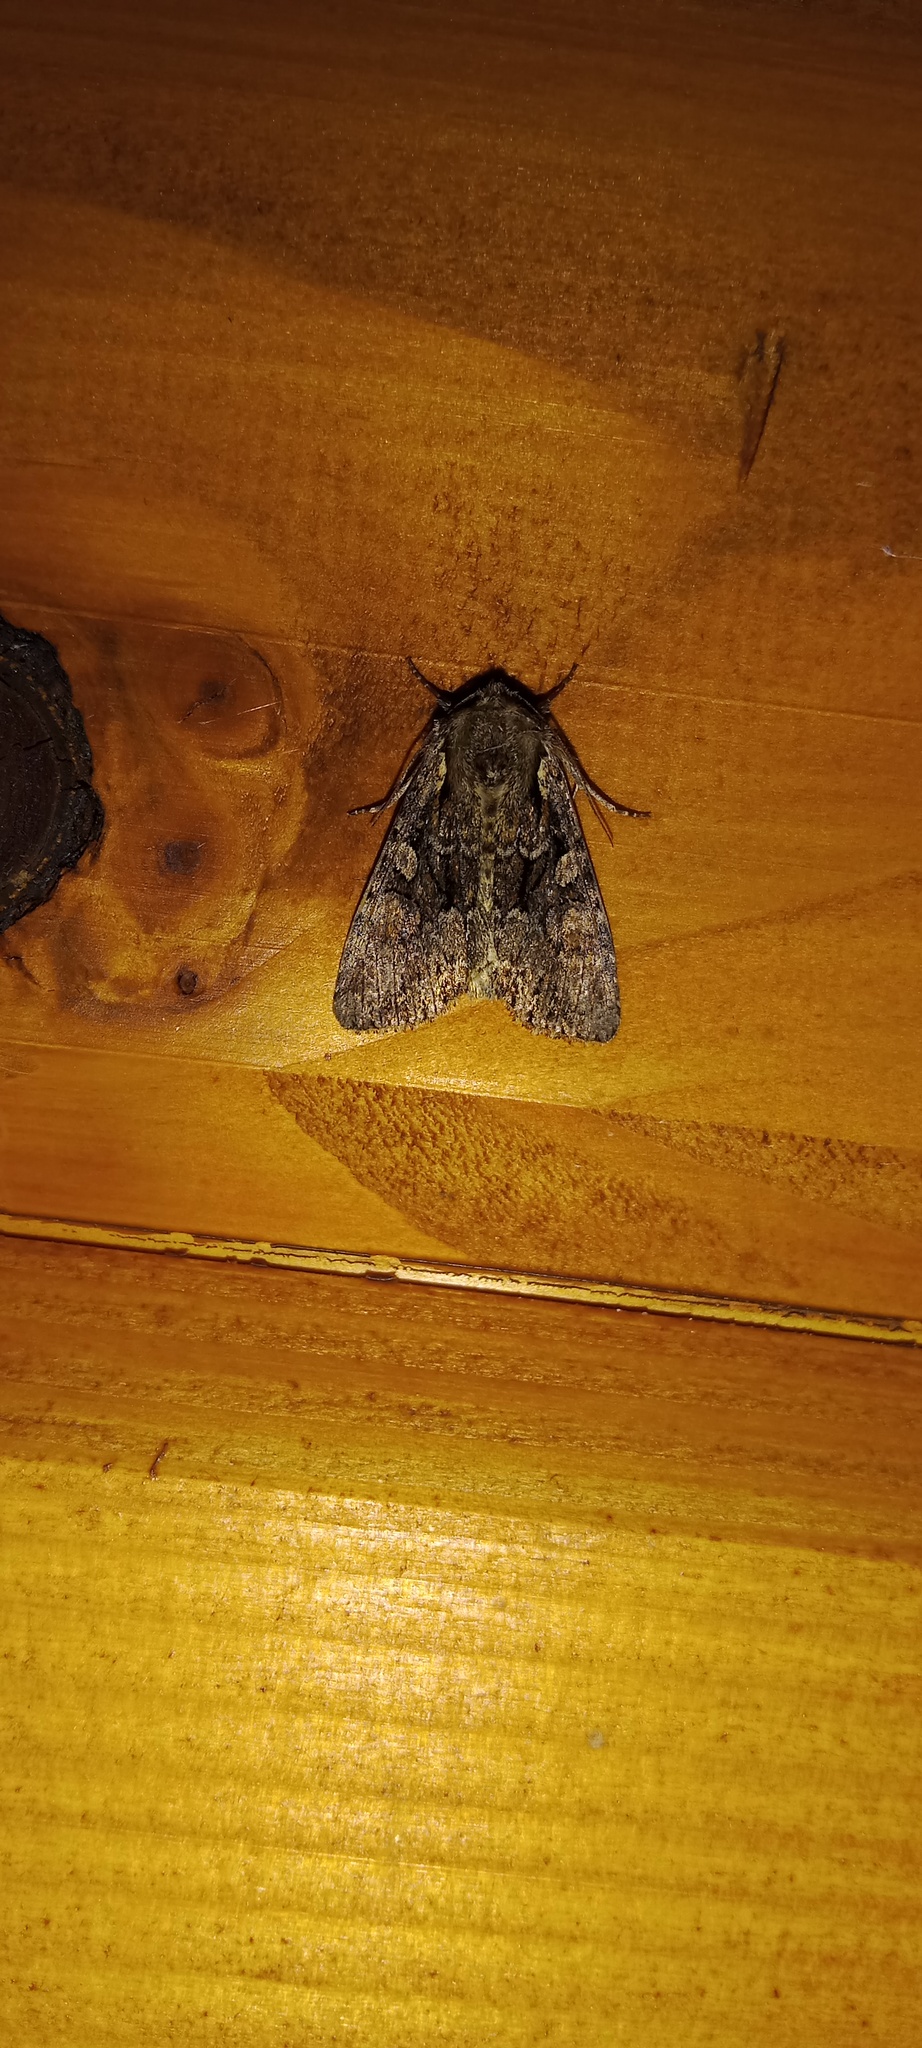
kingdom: Animalia
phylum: Arthropoda
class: Insecta
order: Lepidoptera
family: Noctuidae
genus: Lacanobia
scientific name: Lacanobia thalassina
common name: Pale-shouldered brocade
